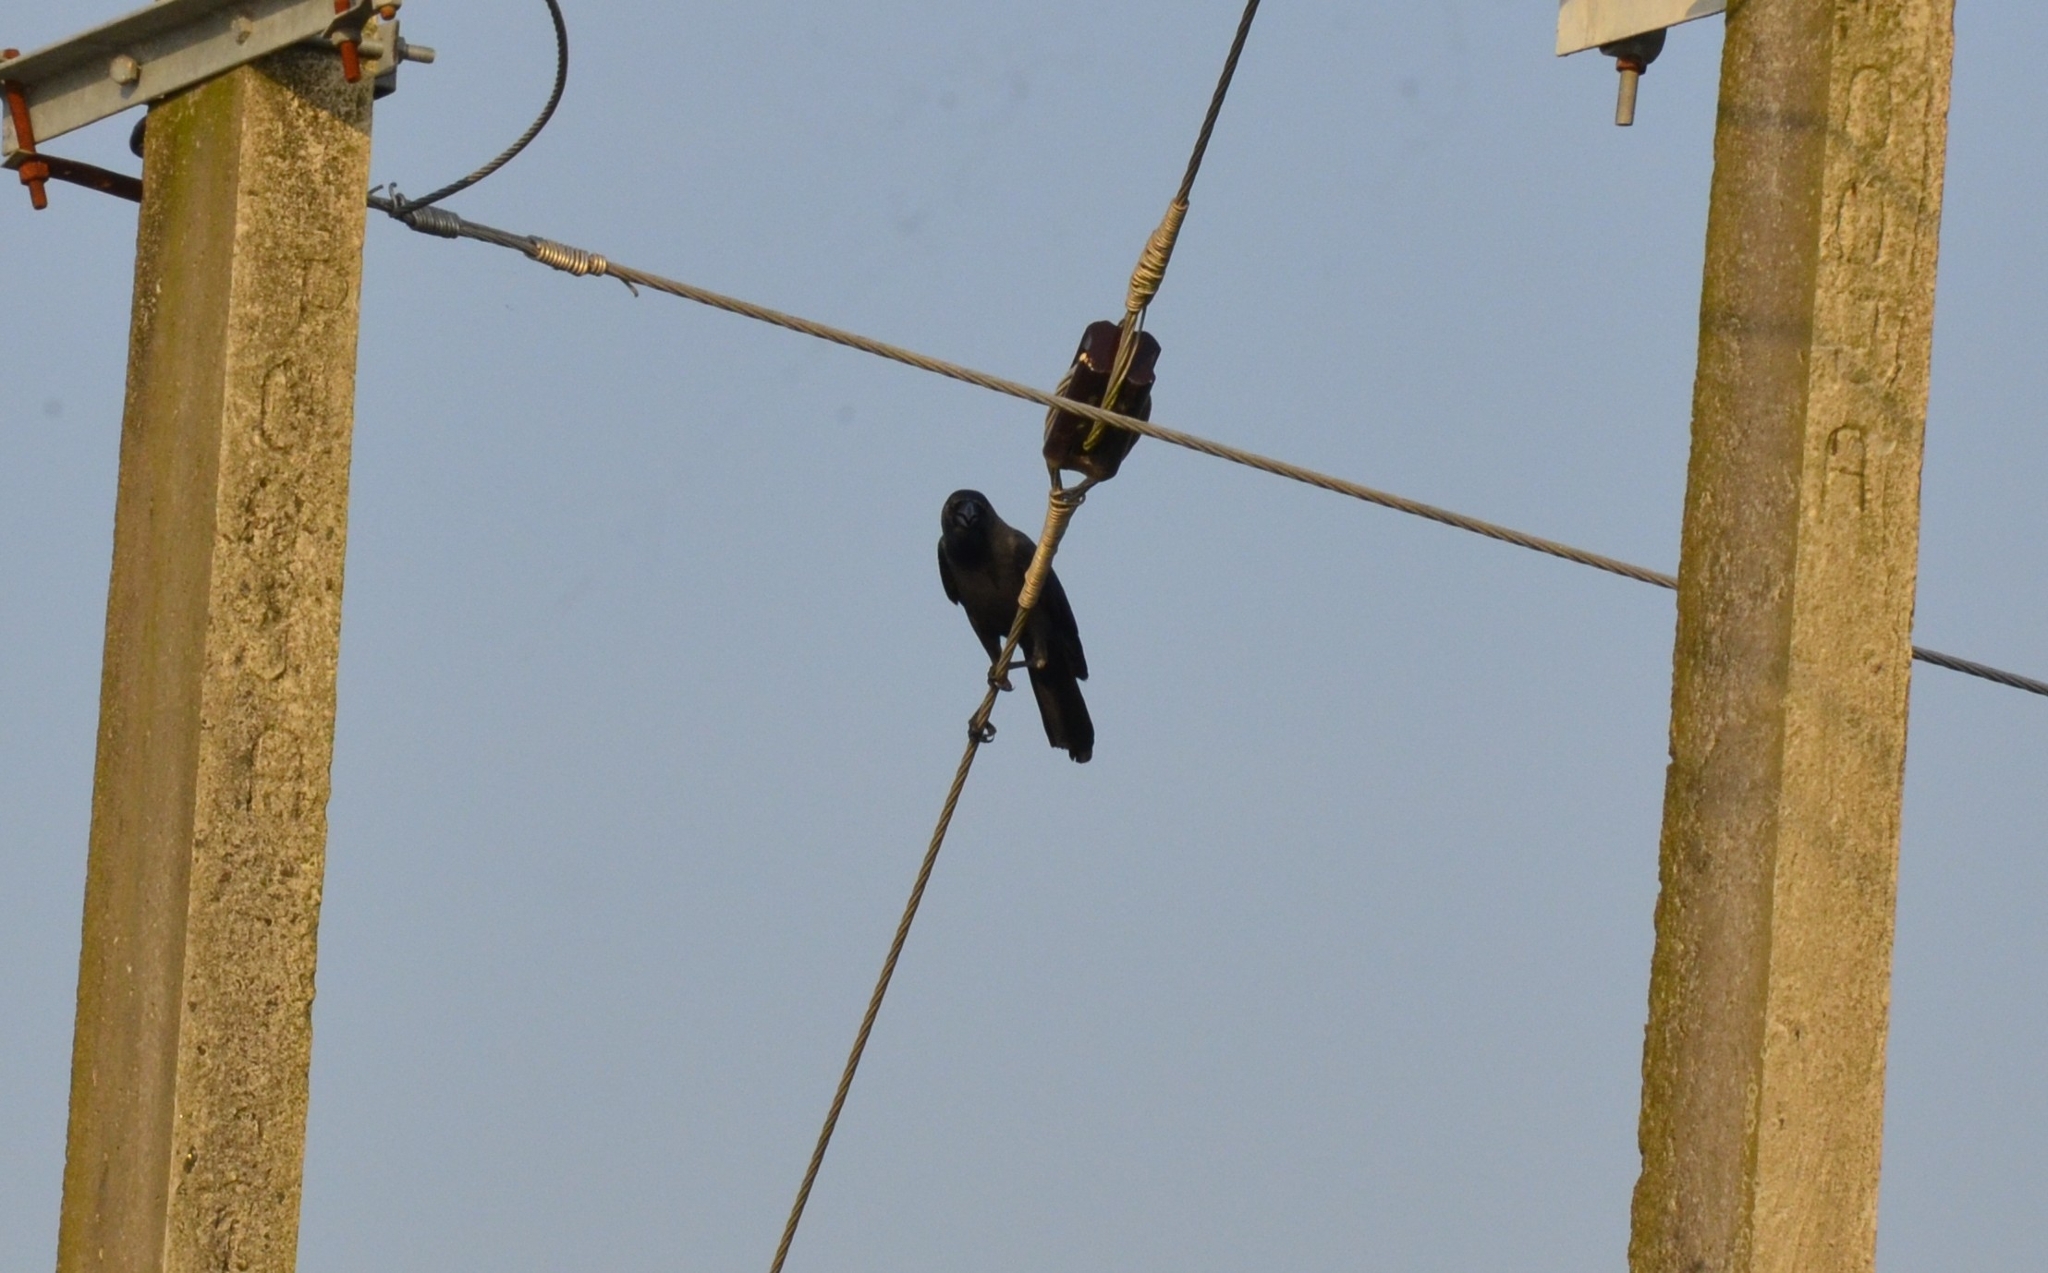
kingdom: Animalia
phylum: Chordata
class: Aves
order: Passeriformes
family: Corvidae
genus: Corvus
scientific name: Corvus splendens
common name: House crow
